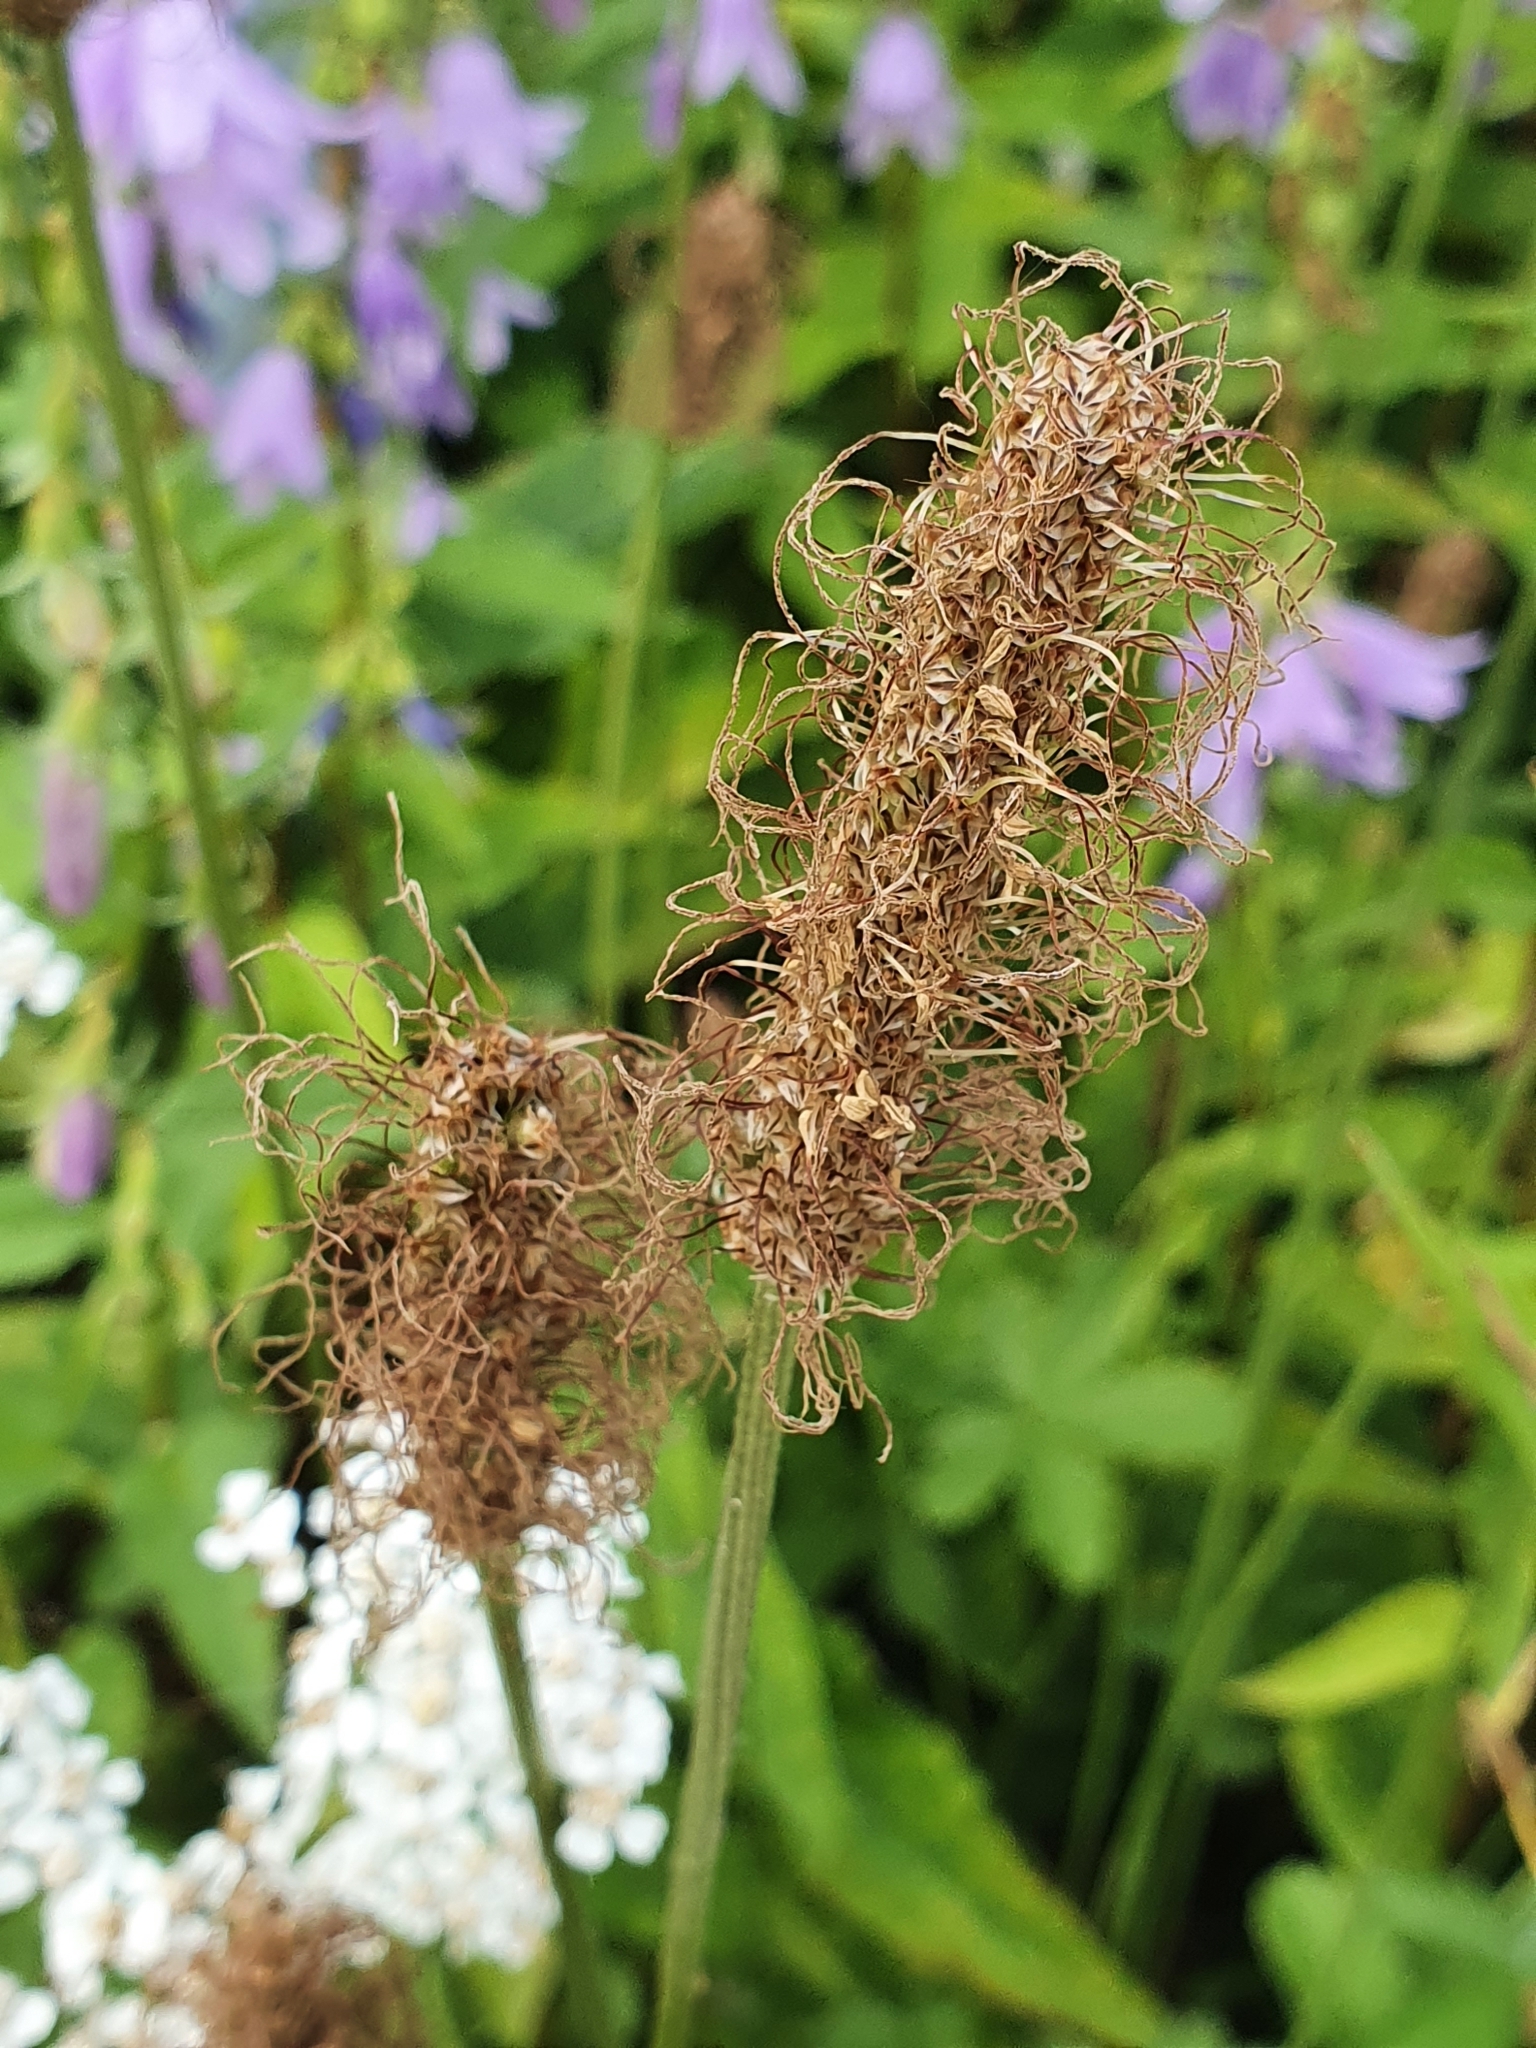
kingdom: Plantae
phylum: Tracheophyta
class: Magnoliopsida
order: Lamiales
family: Plantaginaceae
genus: Plantago
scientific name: Plantago lanceolata
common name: Ribwort plantain
